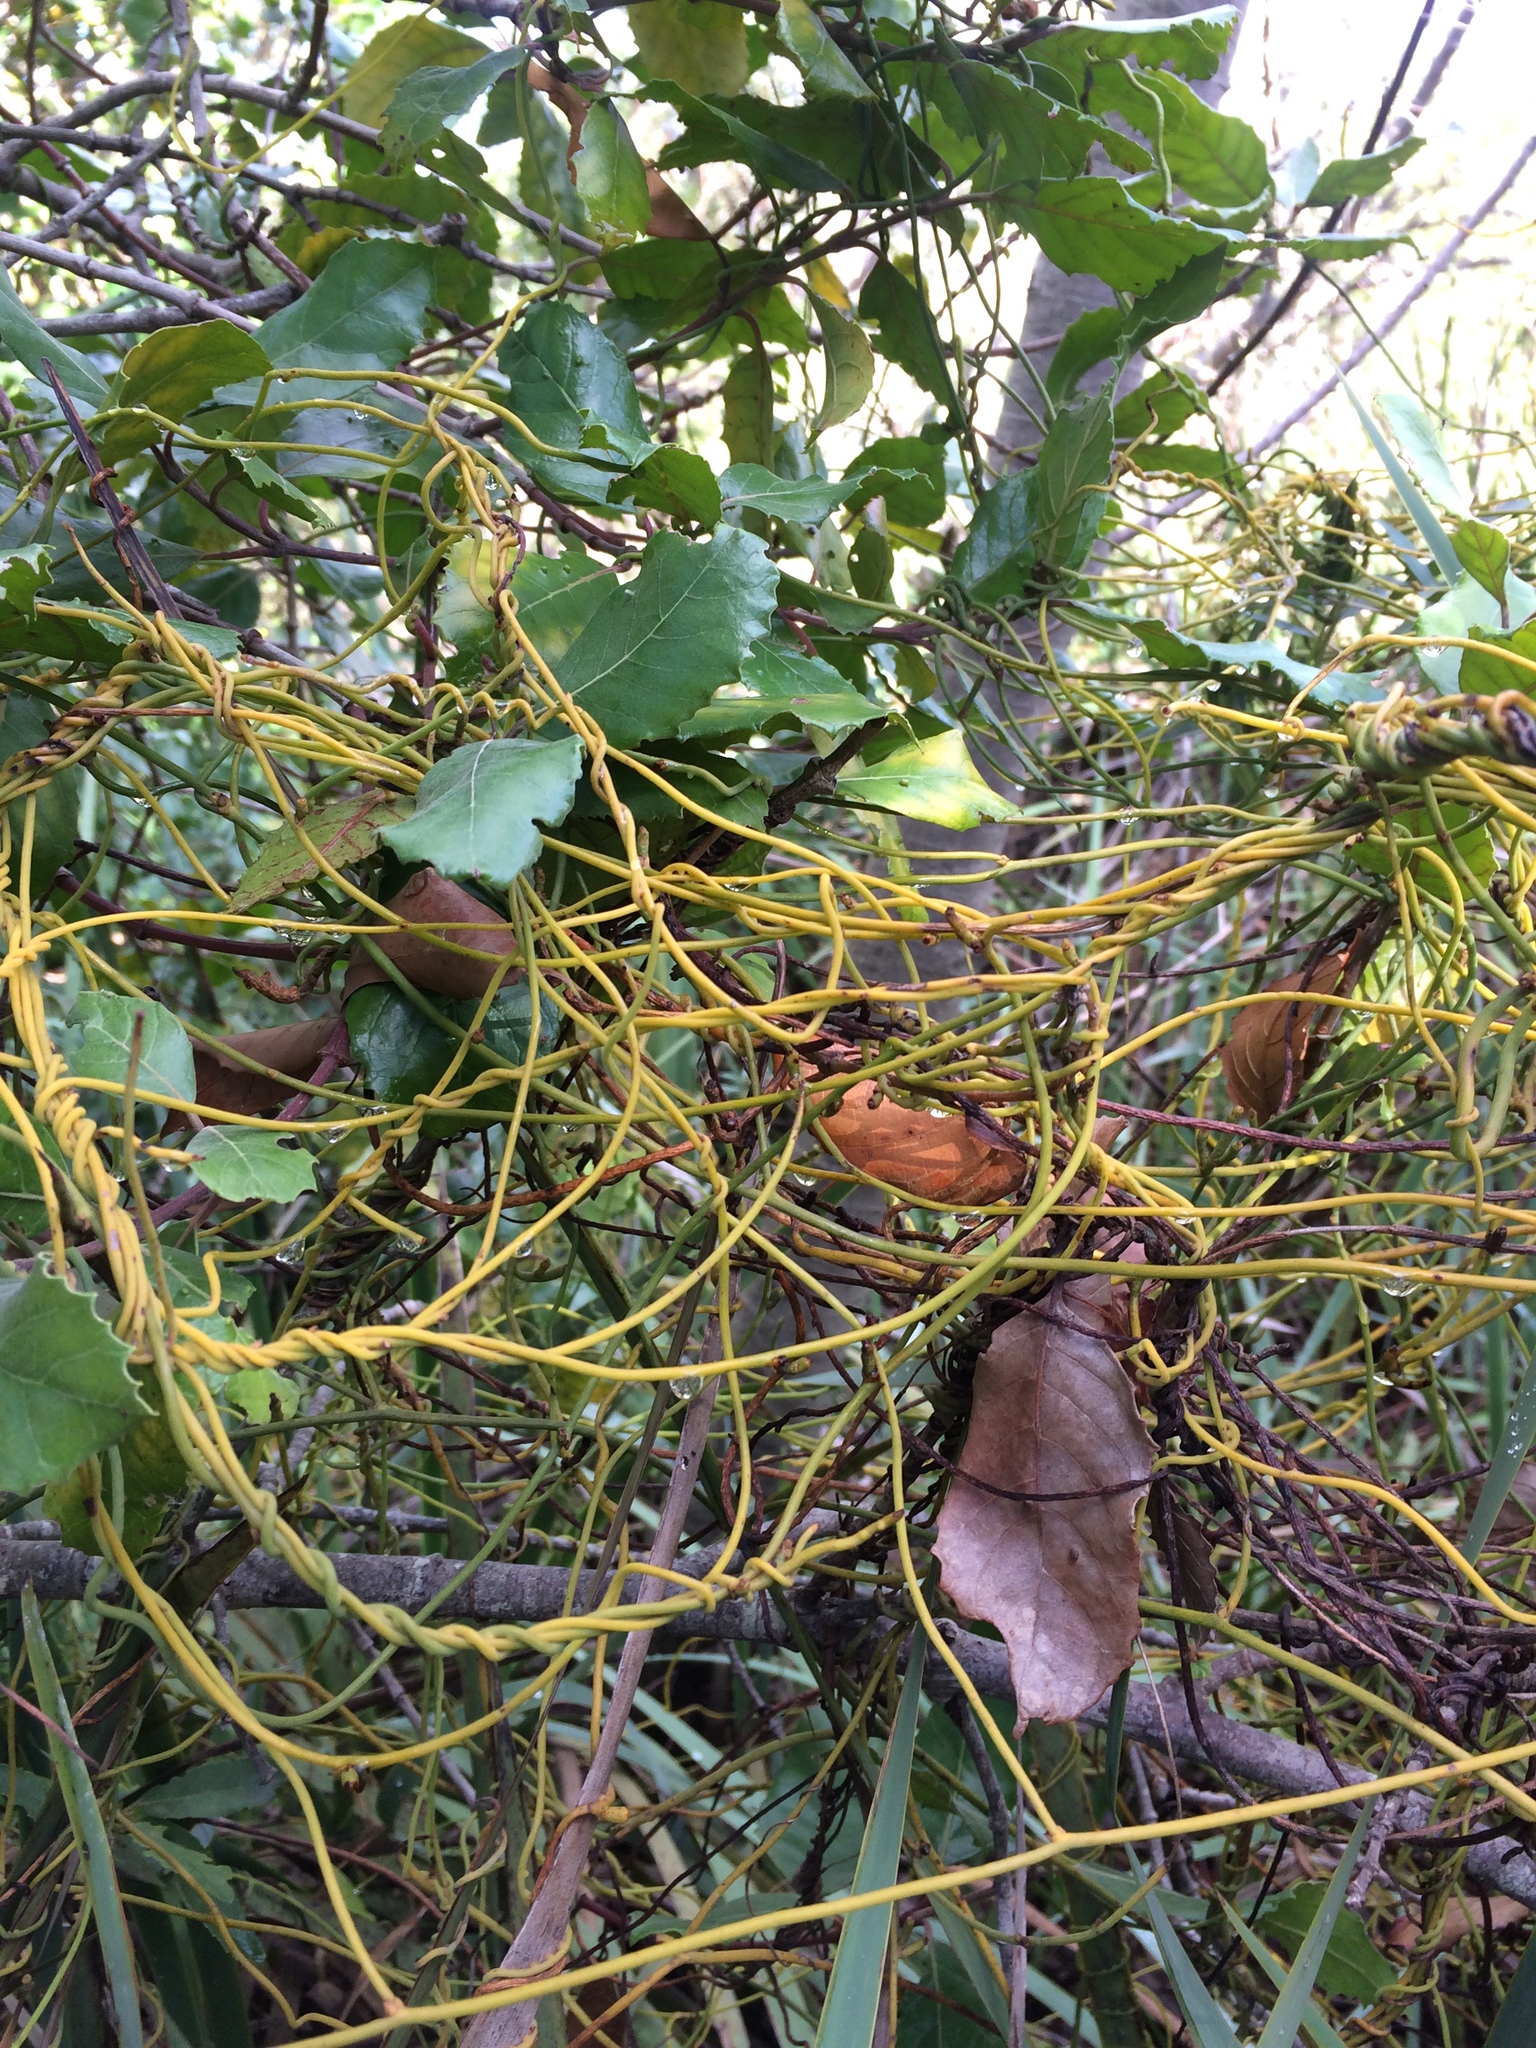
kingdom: Plantae
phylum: Tracheophyta
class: Magnoliopsida
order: Cornales
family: Curtisiaceae
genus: Curtisia
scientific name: Curtisia dentata
